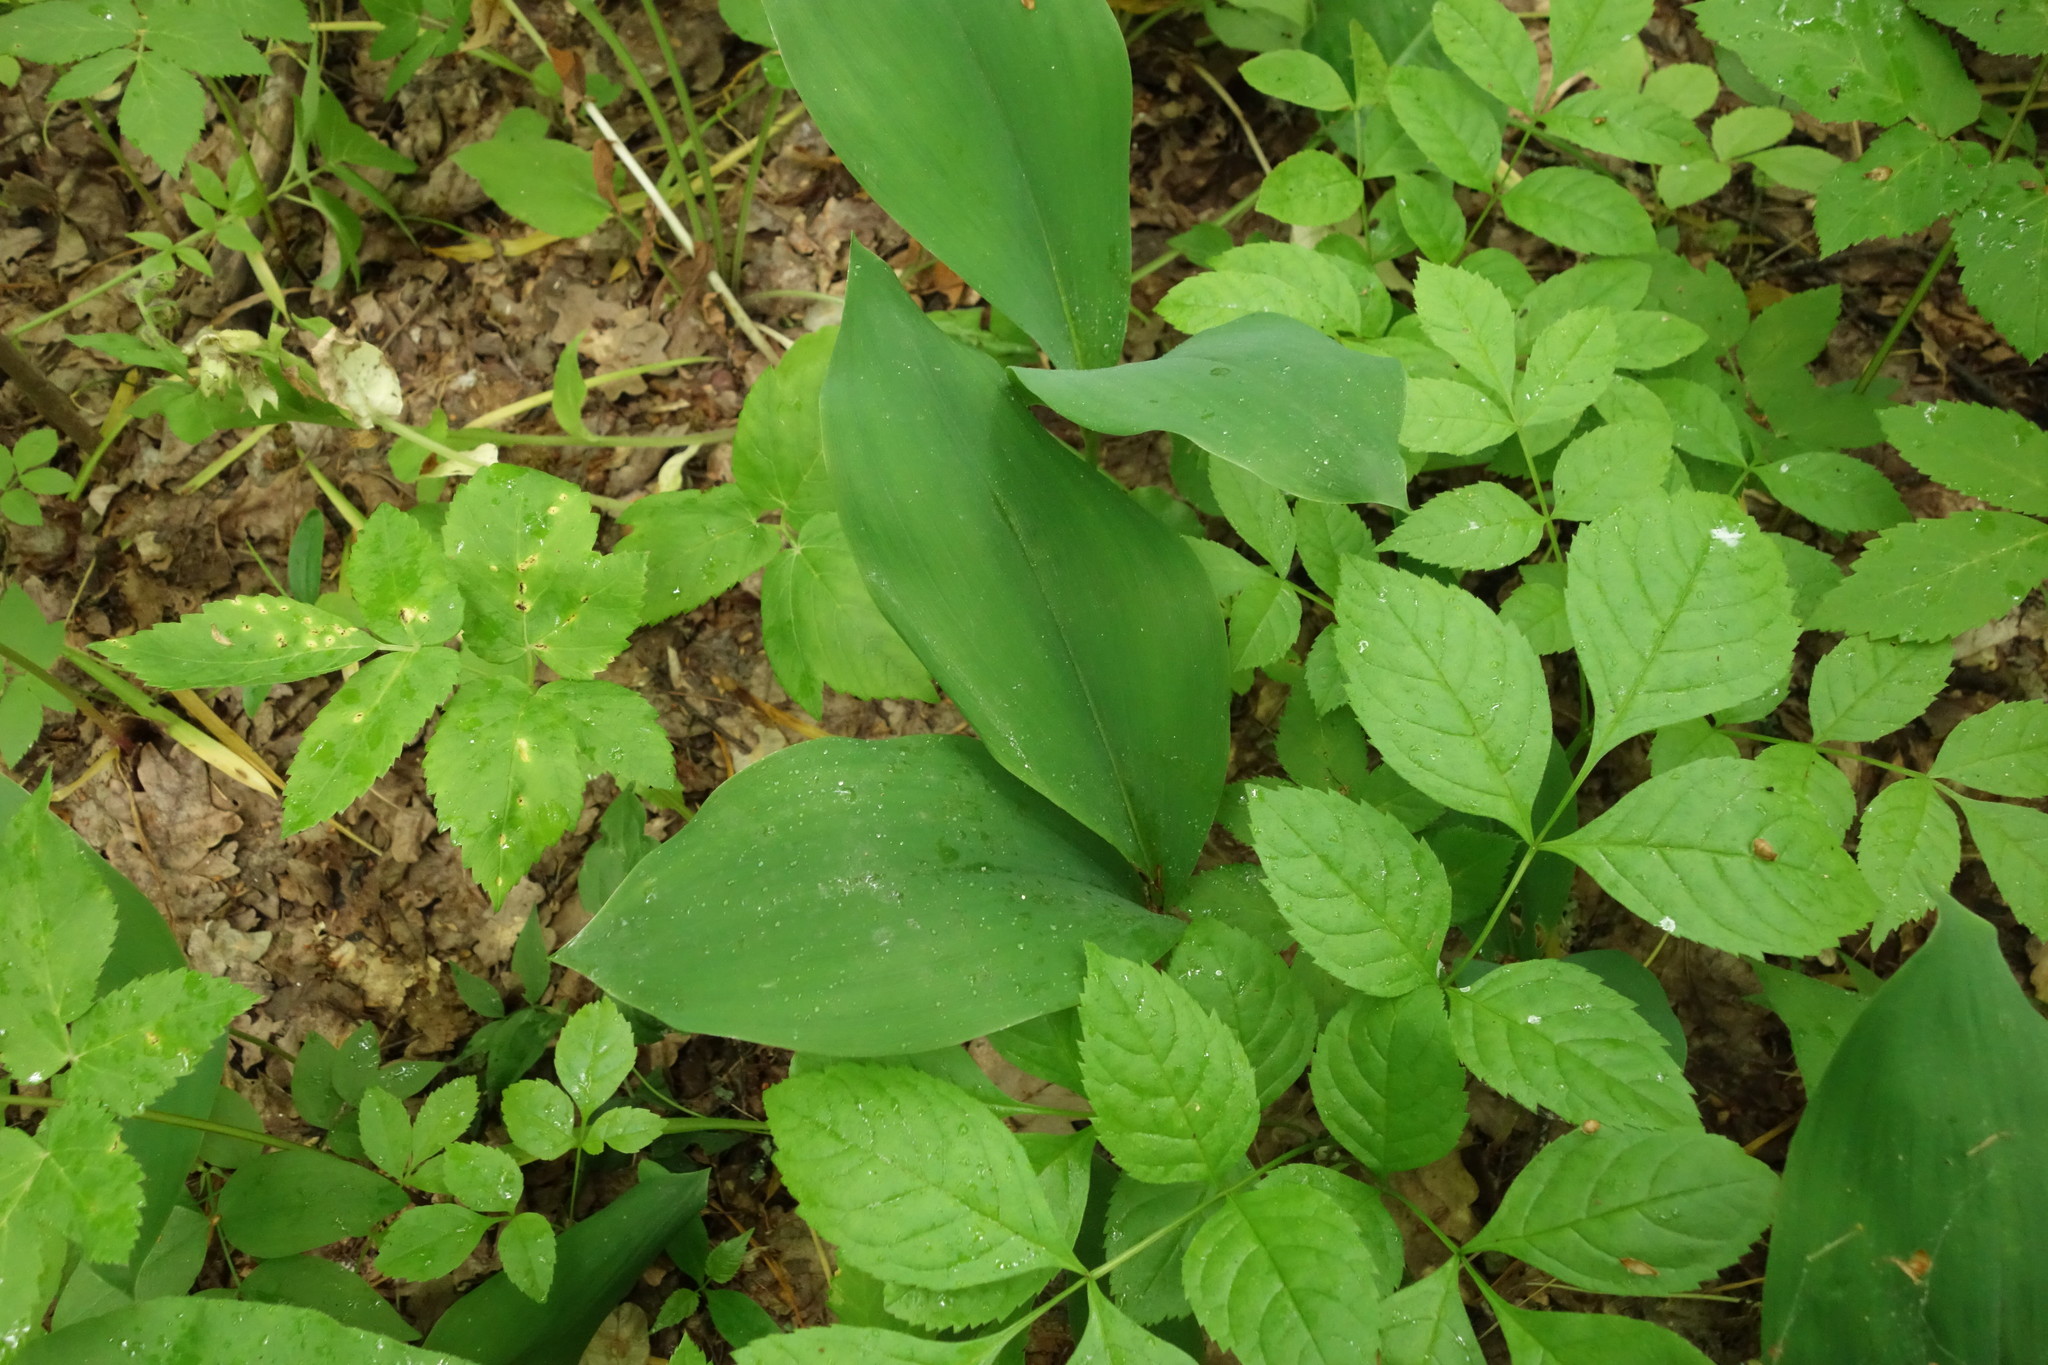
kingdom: Plantae
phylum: Tracheophyta
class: Liliopsida
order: Asparagales
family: Asparagaceae
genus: Convallaria
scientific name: Convallaria majalis
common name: Lily-of-the-valley
